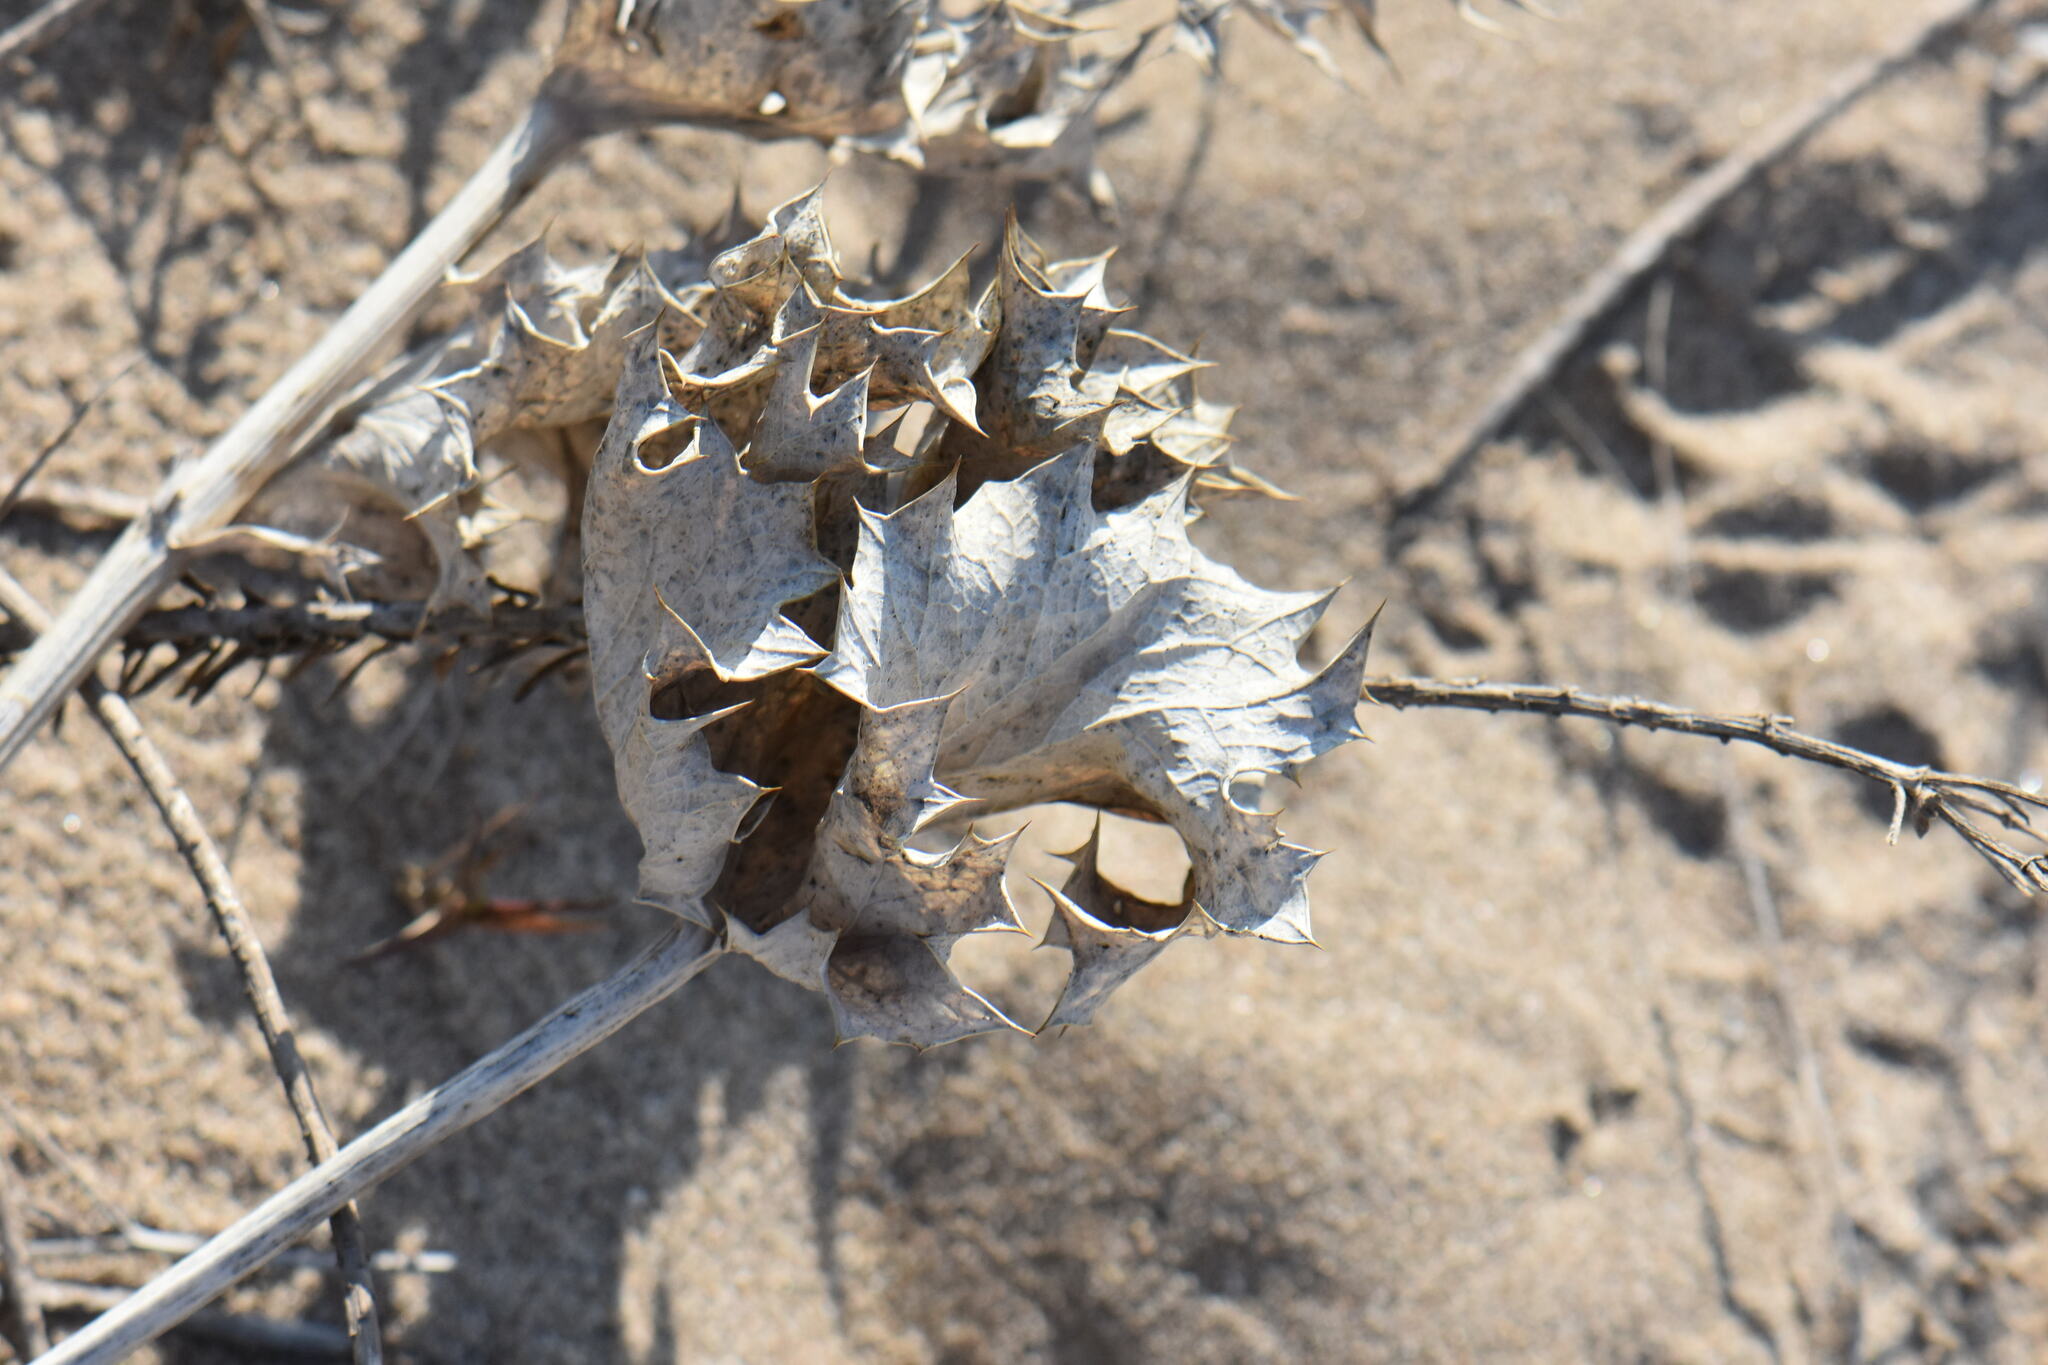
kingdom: Plantae
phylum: Tracheophyta
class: Magnoliopsida
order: Apiales
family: Apiaceae
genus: Eryngium
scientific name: Eryngium maritimum
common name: Sea-holly
